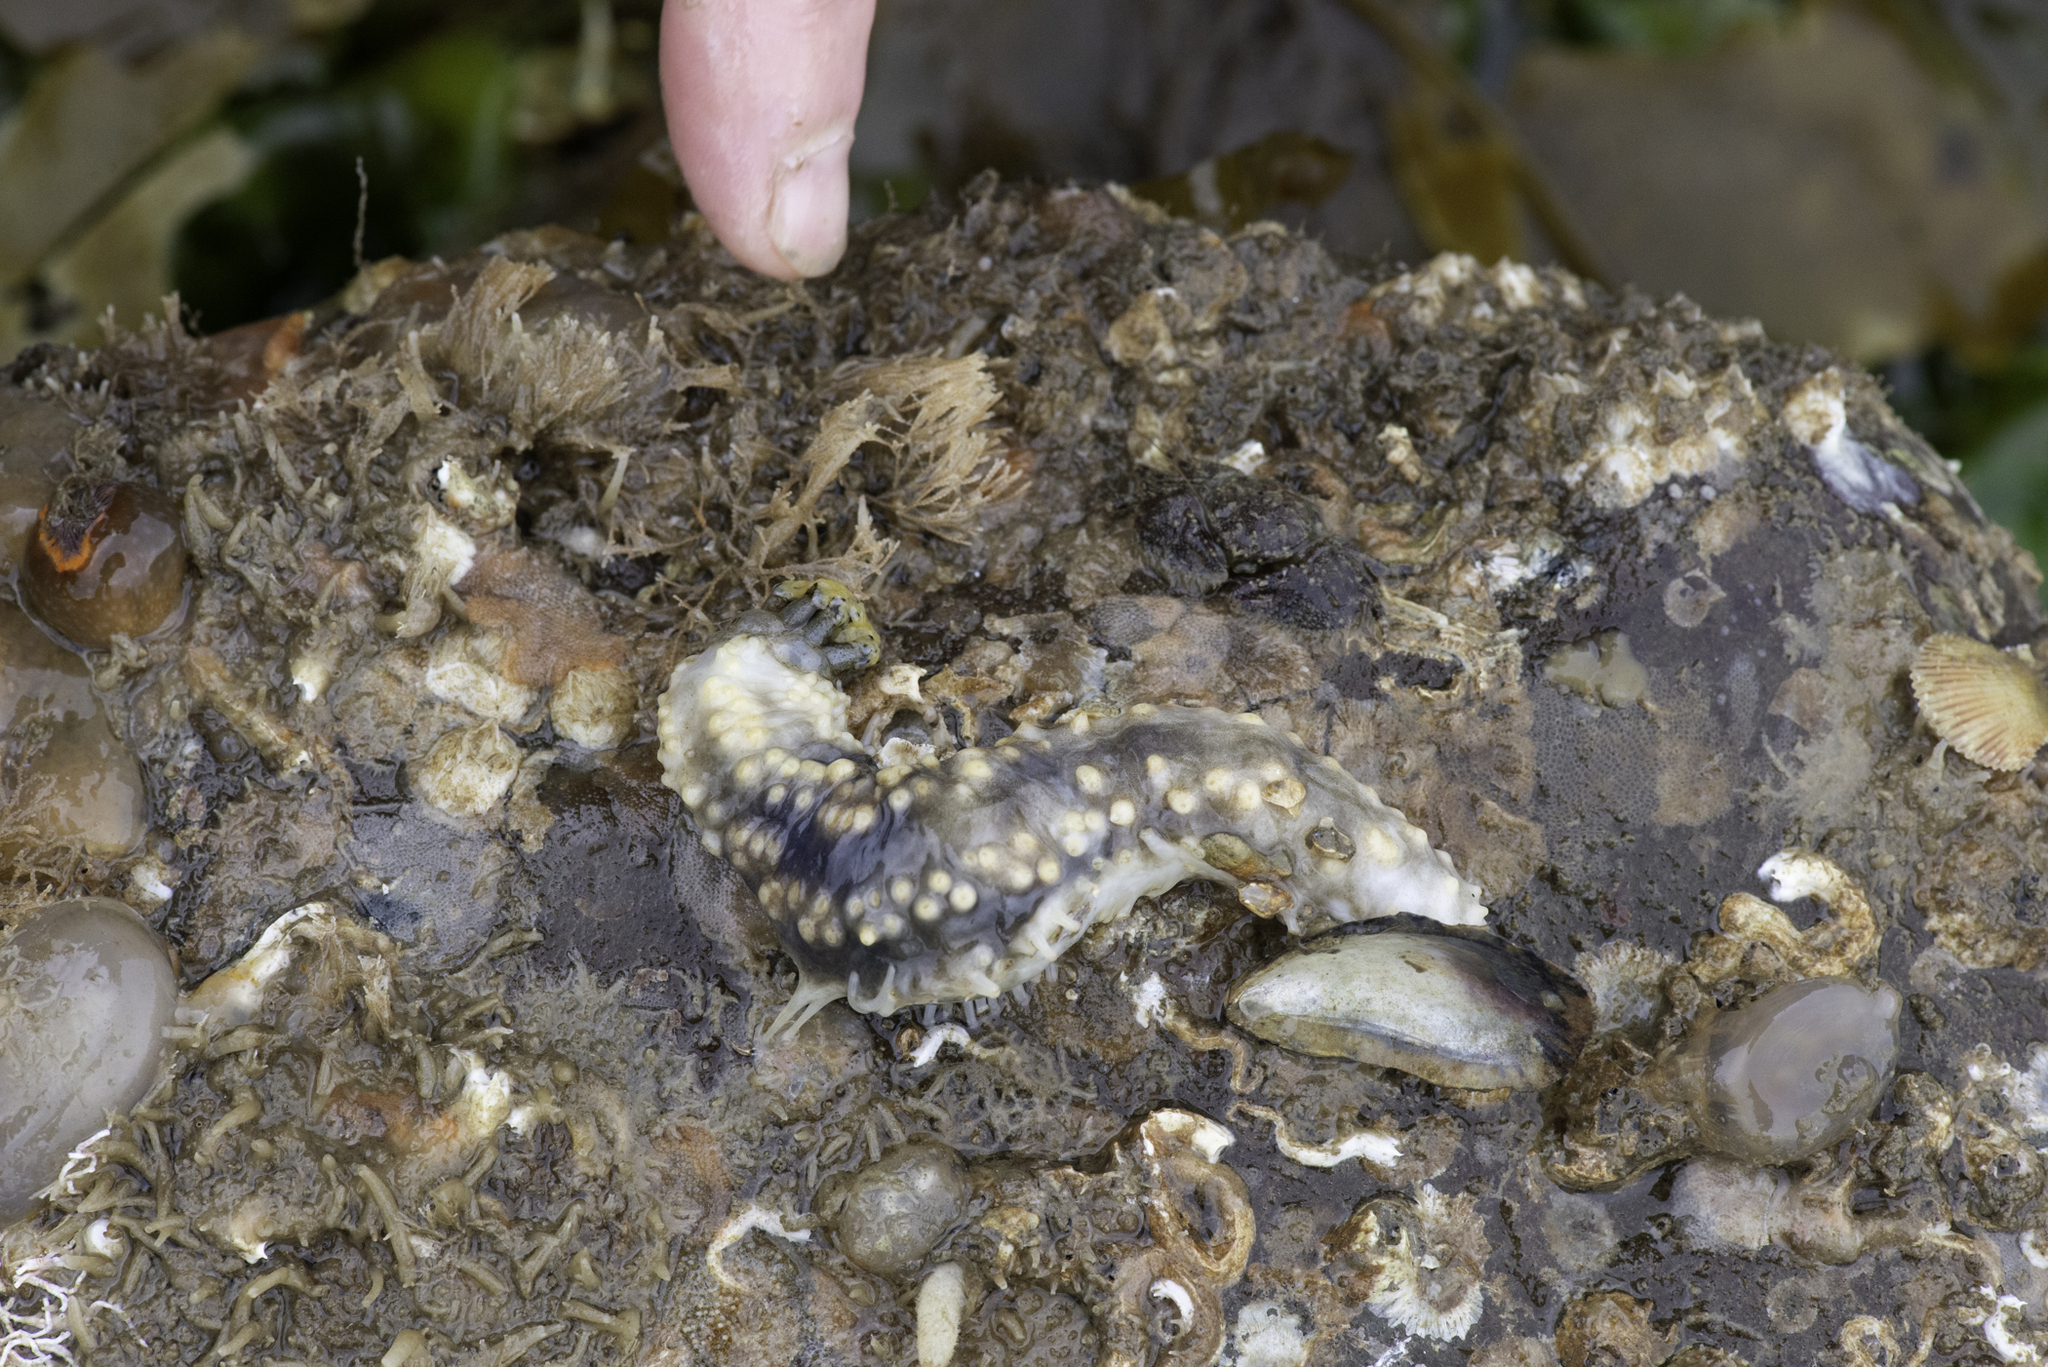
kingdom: Animalia
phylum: Echinodermata
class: Holothuroidea
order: Dendrochirotida
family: Cucumariidae
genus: Pawsonia
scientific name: Pawsonia saxicola
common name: Sea gherkin
